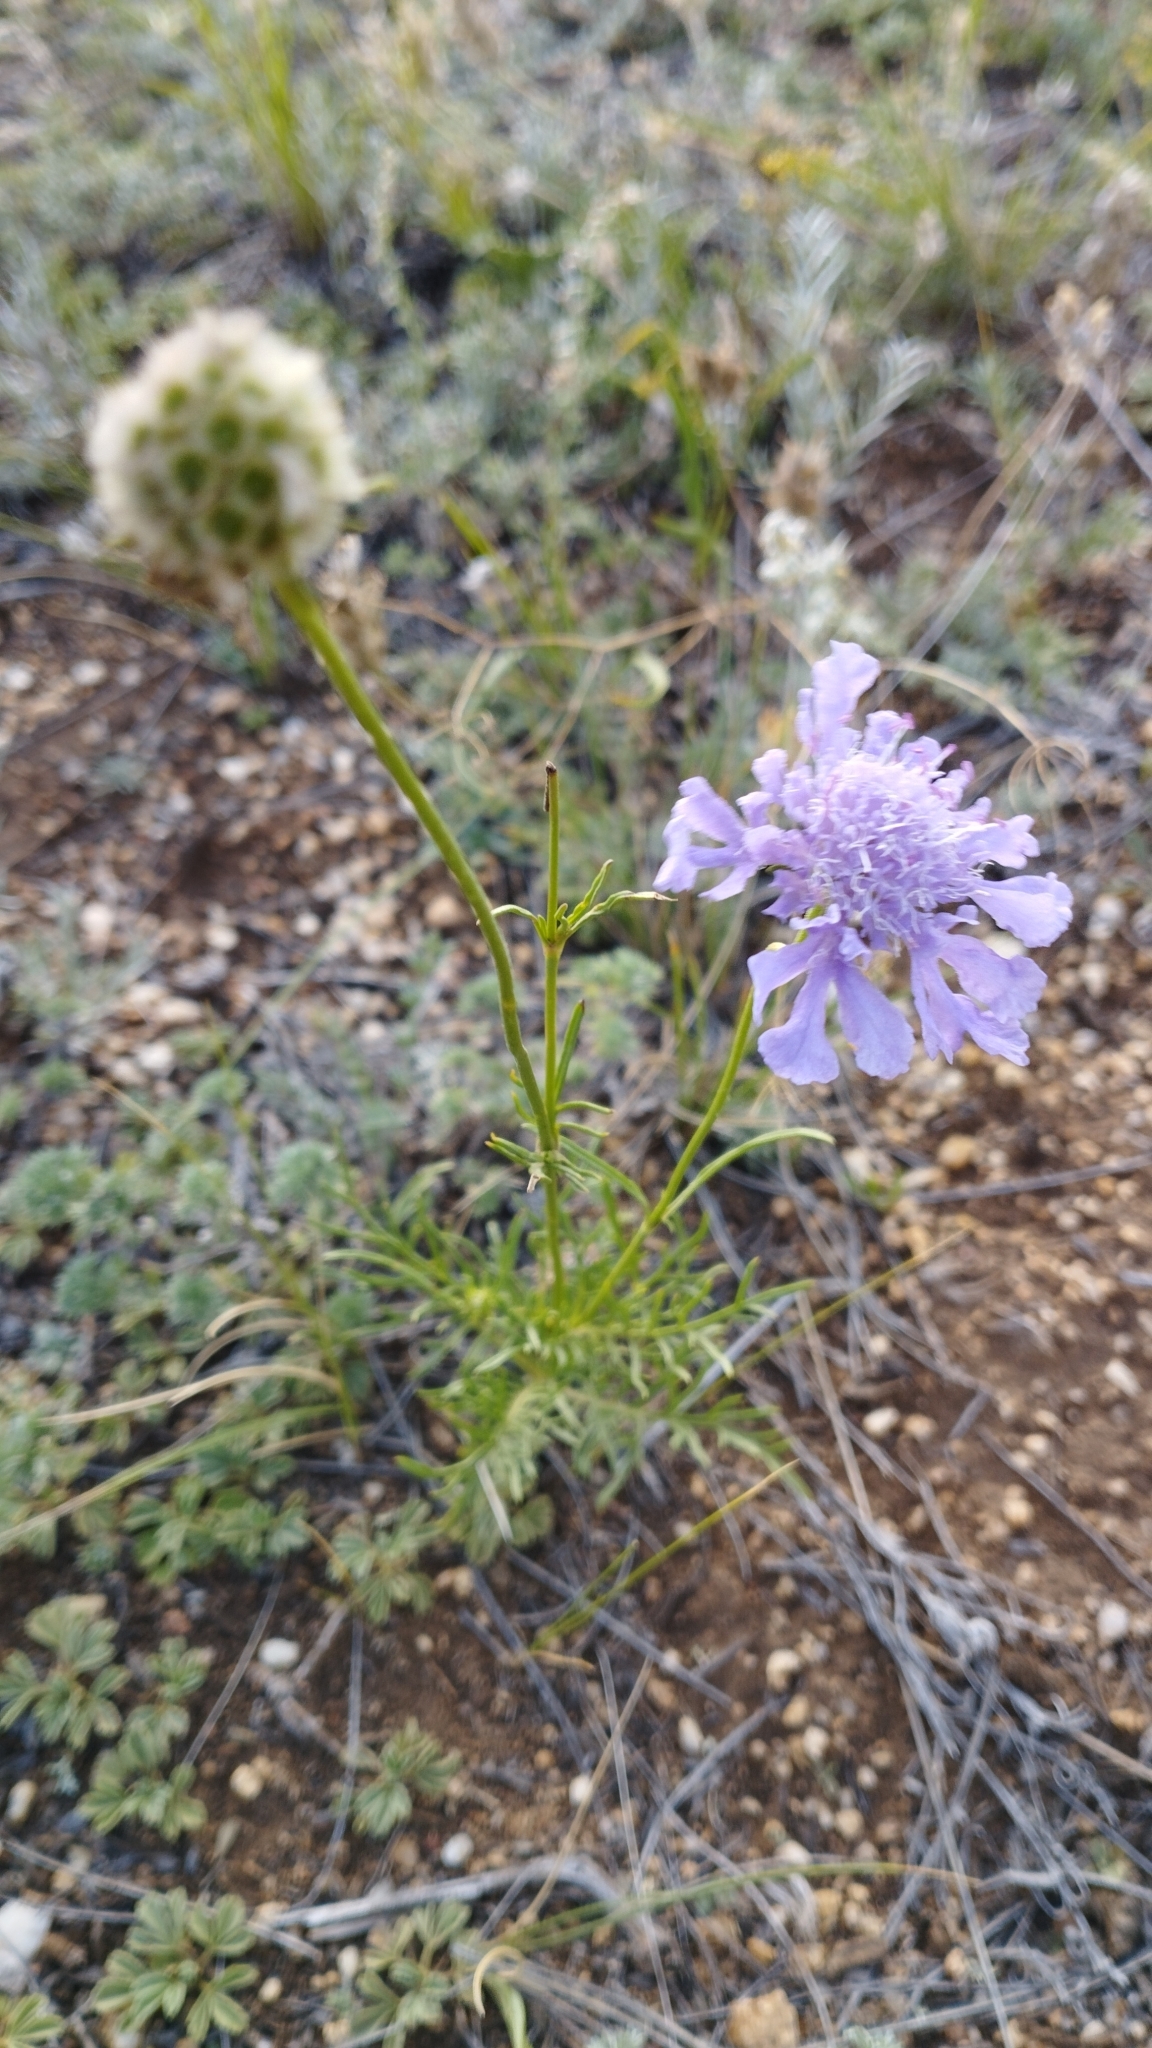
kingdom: Plantae
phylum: Tracheophyta
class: Magnoliopsida
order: Dipsacales
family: Caprifoliaceae
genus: Scabiosa
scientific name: Scabiosa comosa
